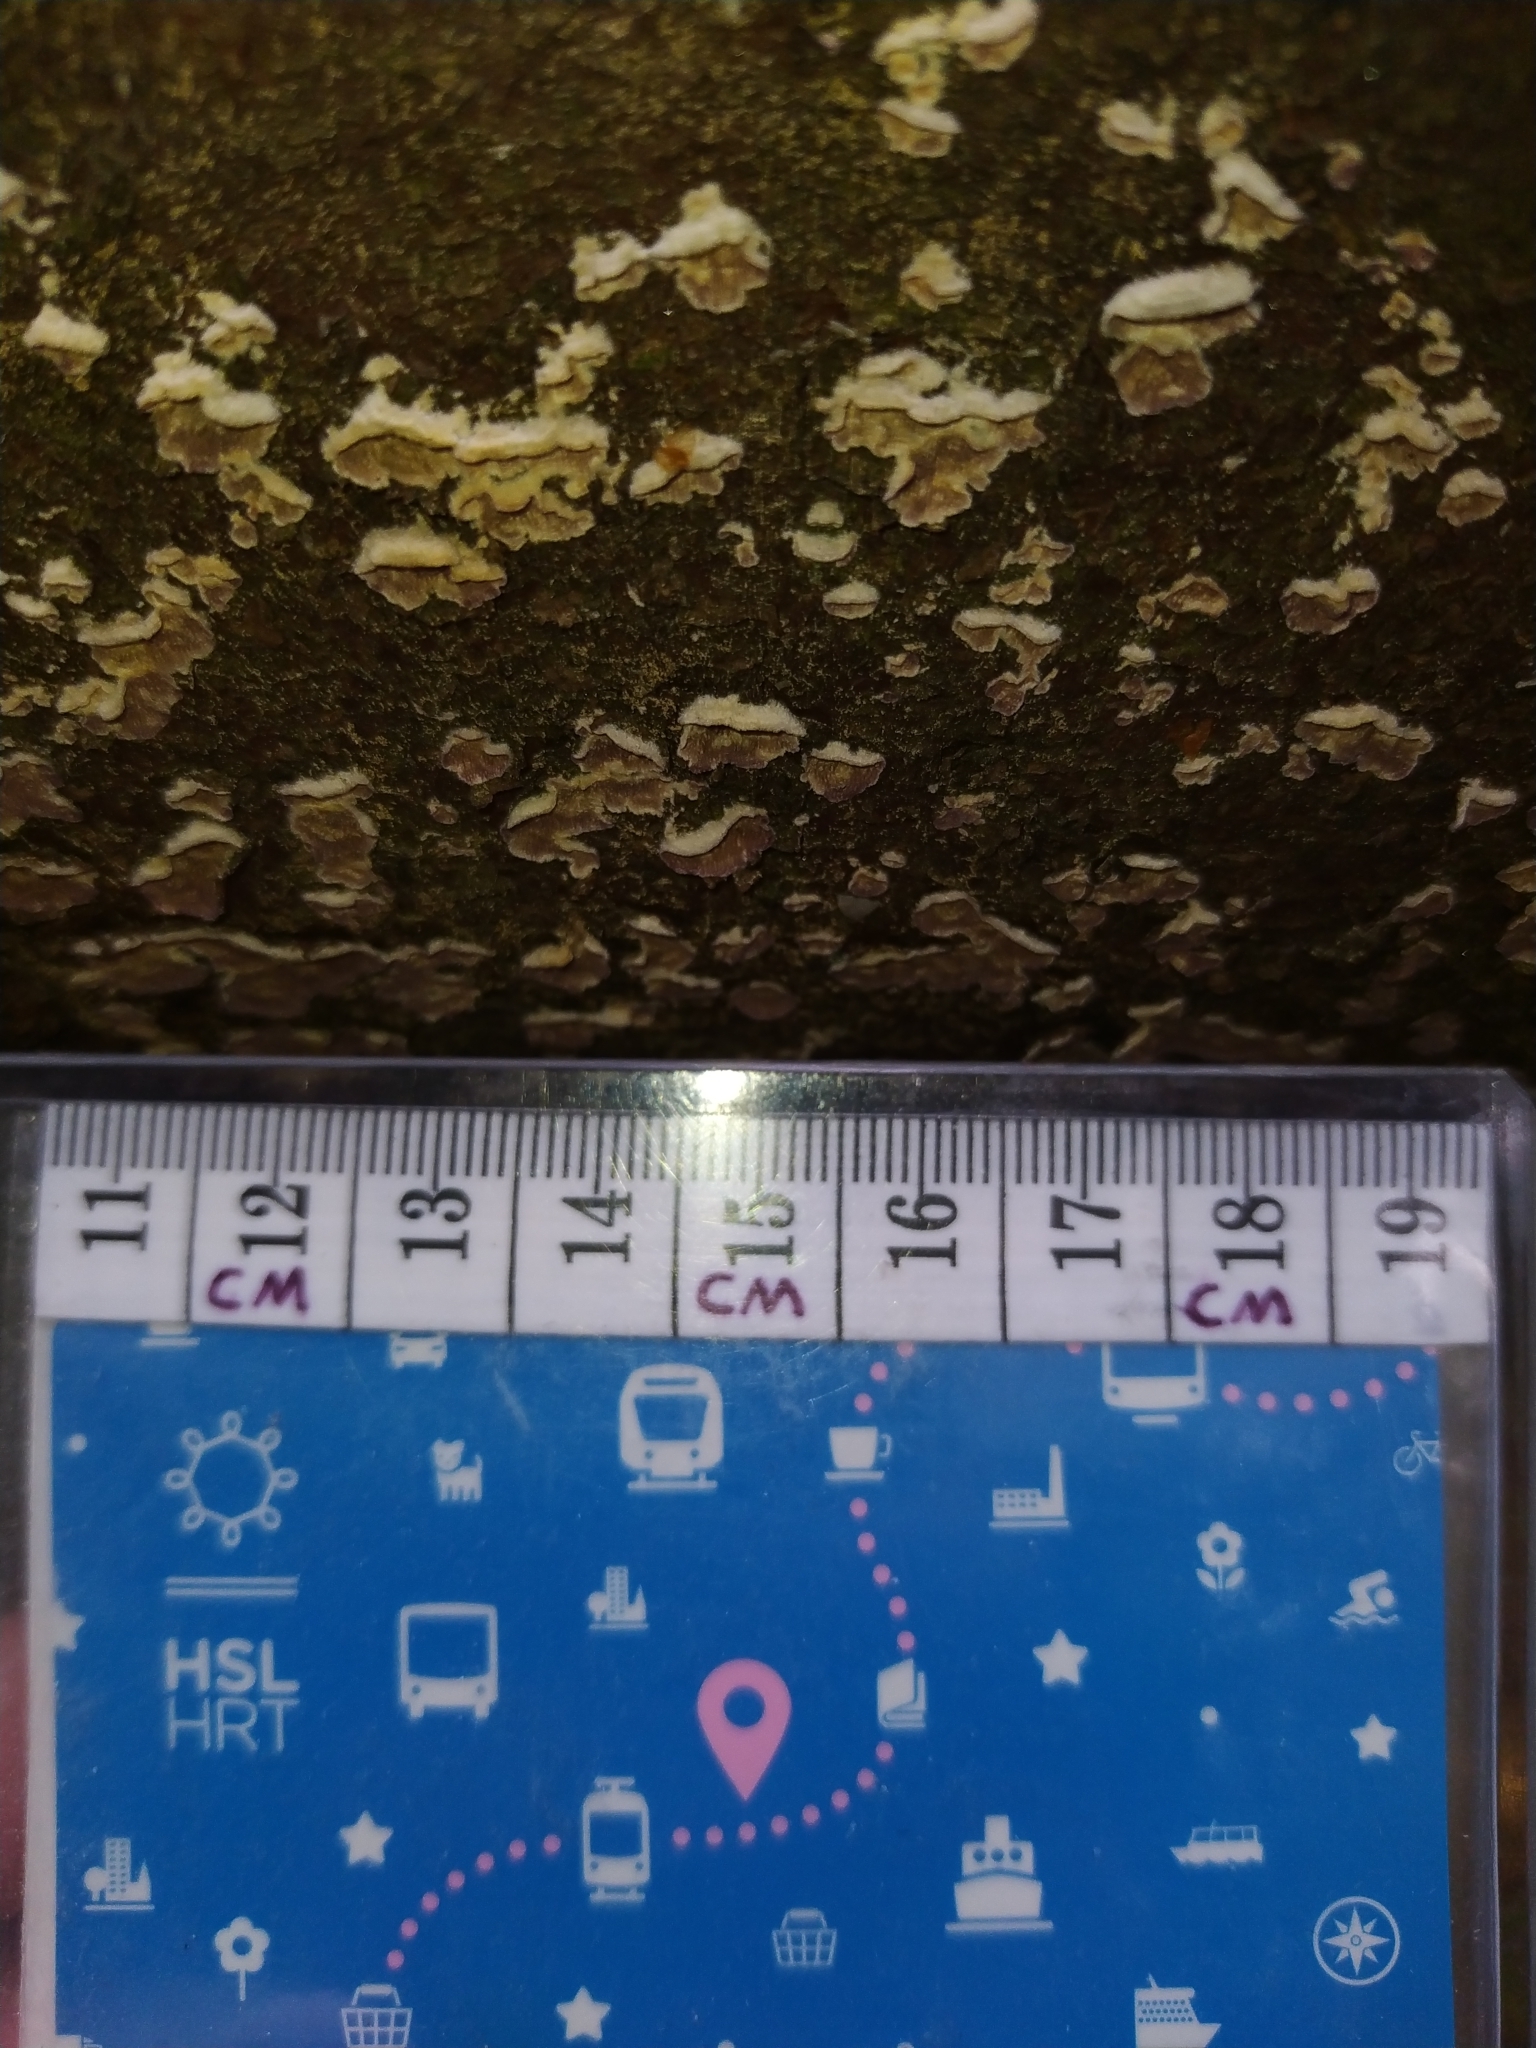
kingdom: Fungi
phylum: Basidiomycota
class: Agaricomycetes
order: Hymenochaetales
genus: Trichaptum
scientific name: Trichaptum abietinum
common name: Purplepore bracket
